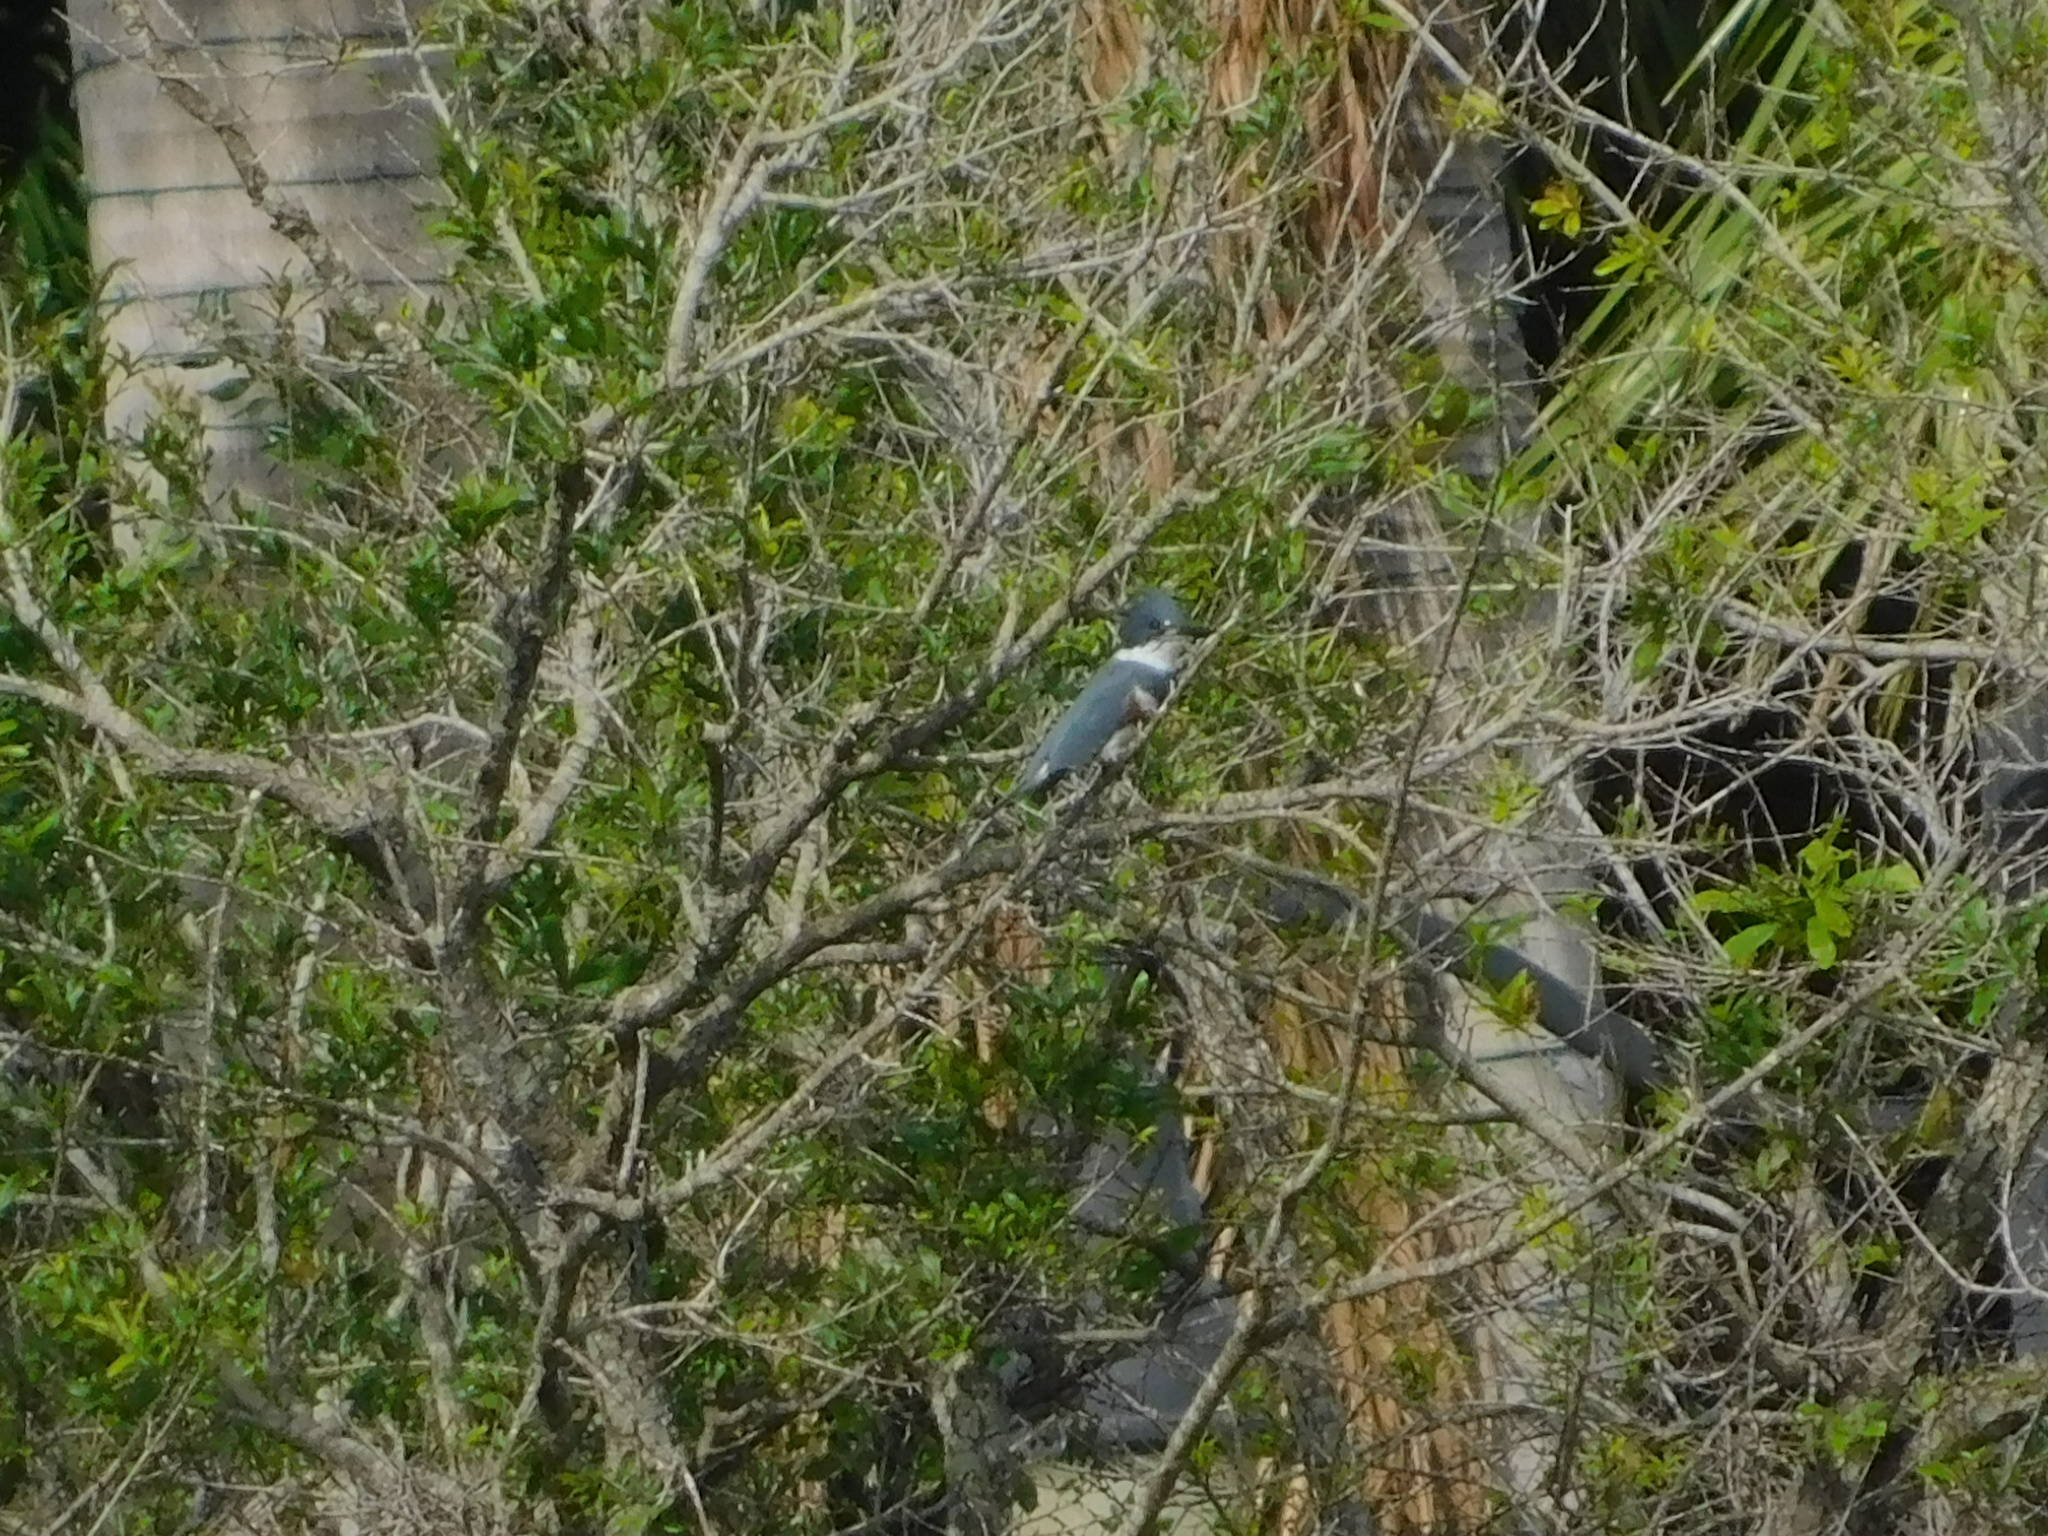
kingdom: Animalia
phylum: Chordata
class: Aves
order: Coraciiformes
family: Alcedinidae
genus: Megaceryle
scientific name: Megaceryle alcyon
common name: Belted kingfisher
